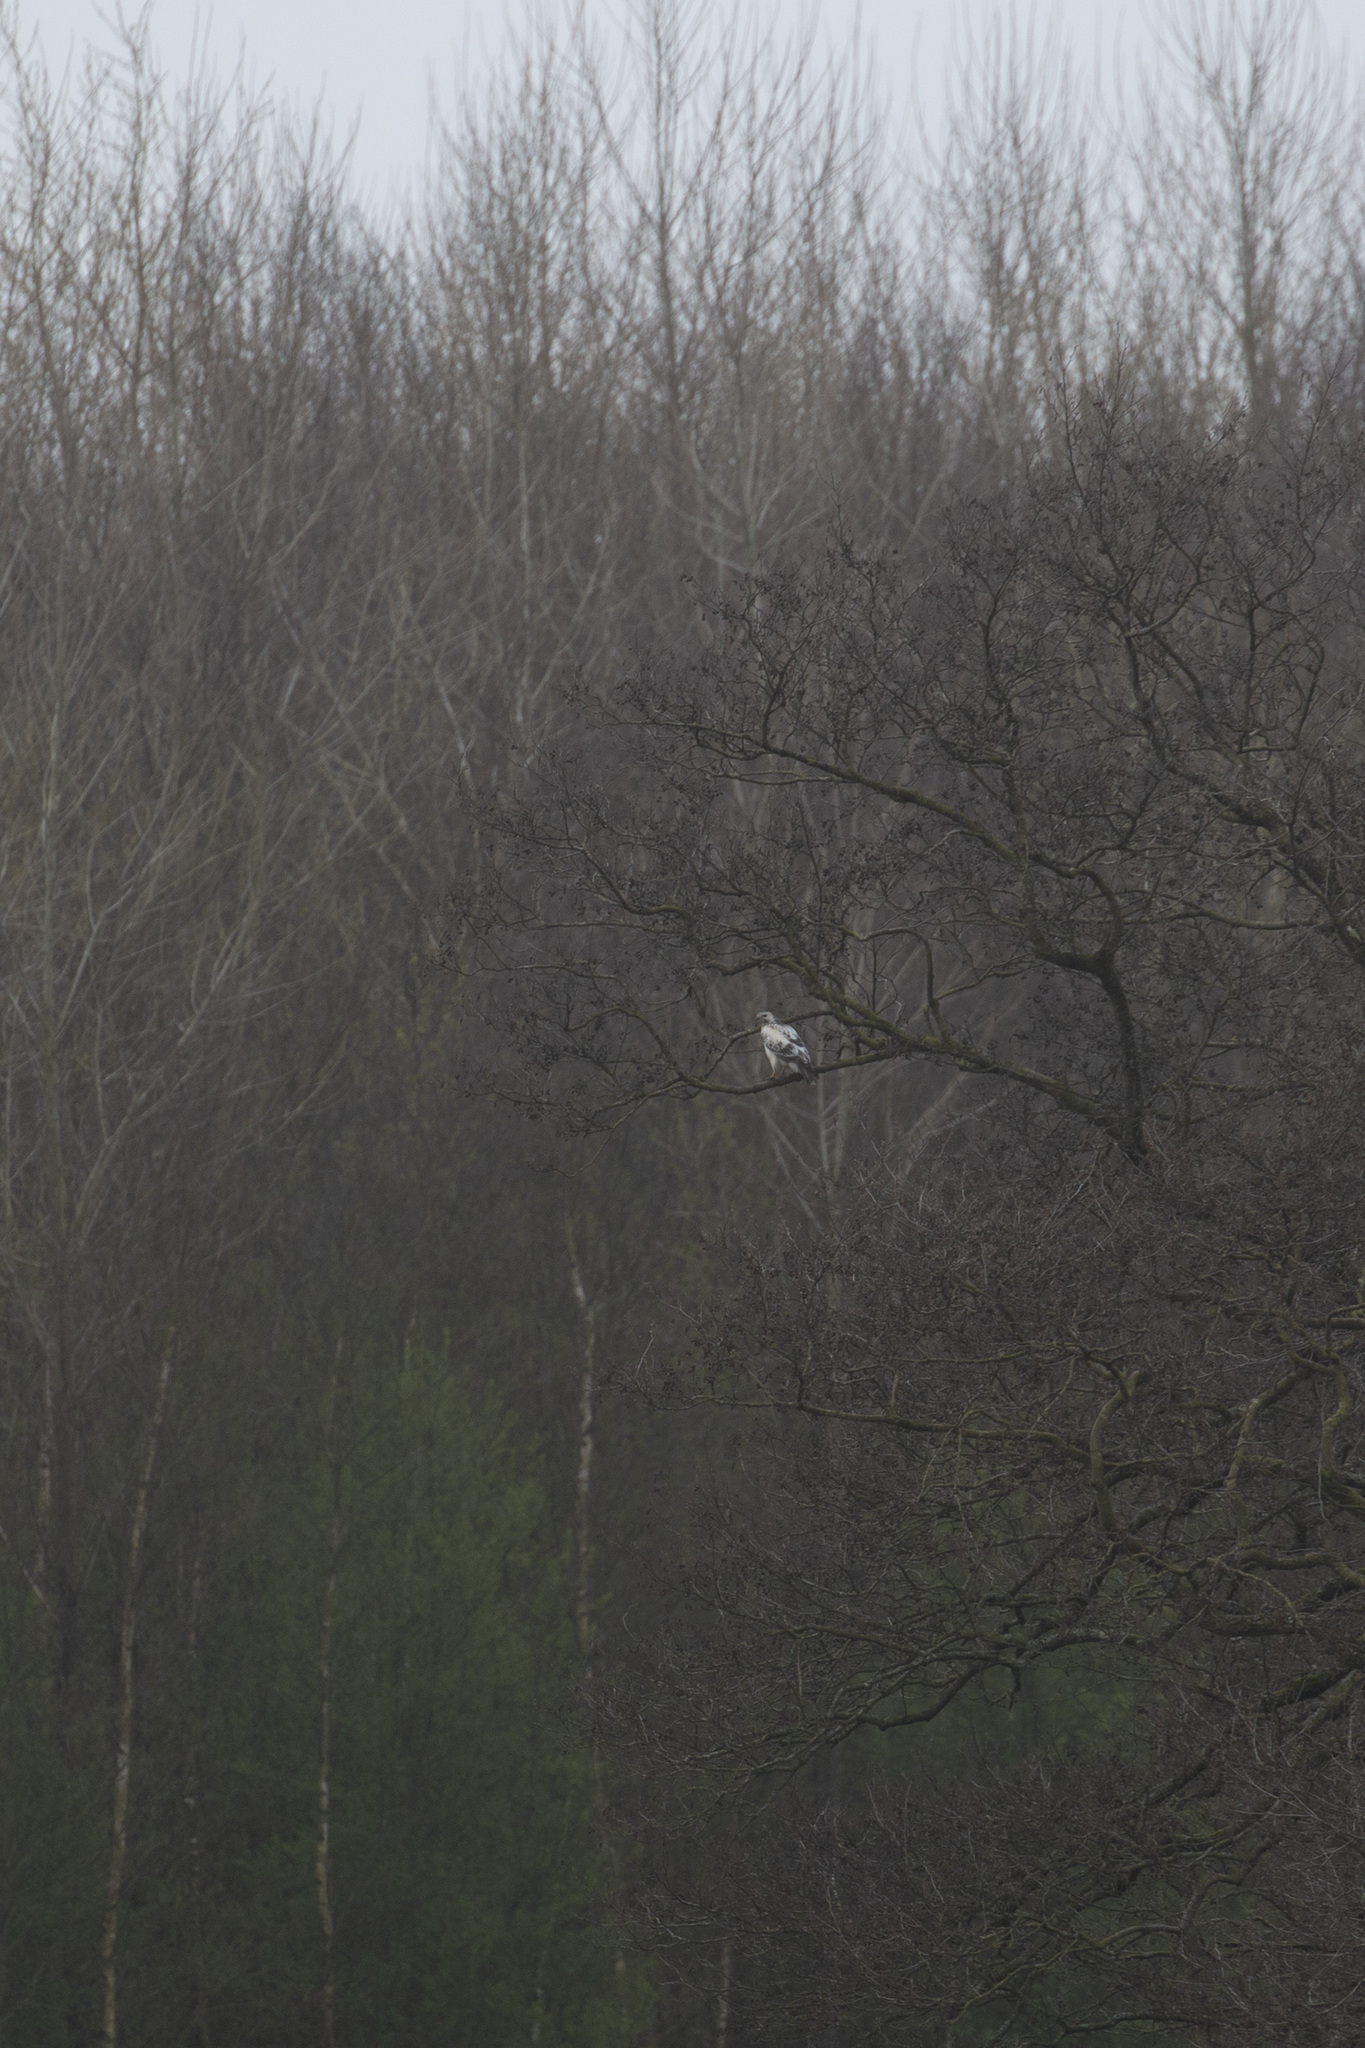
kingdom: Animalia
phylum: Chordata
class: Aves
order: Accipitriformes
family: Accipitridae
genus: Buteo
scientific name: Buteo buteo
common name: Common buzzard
